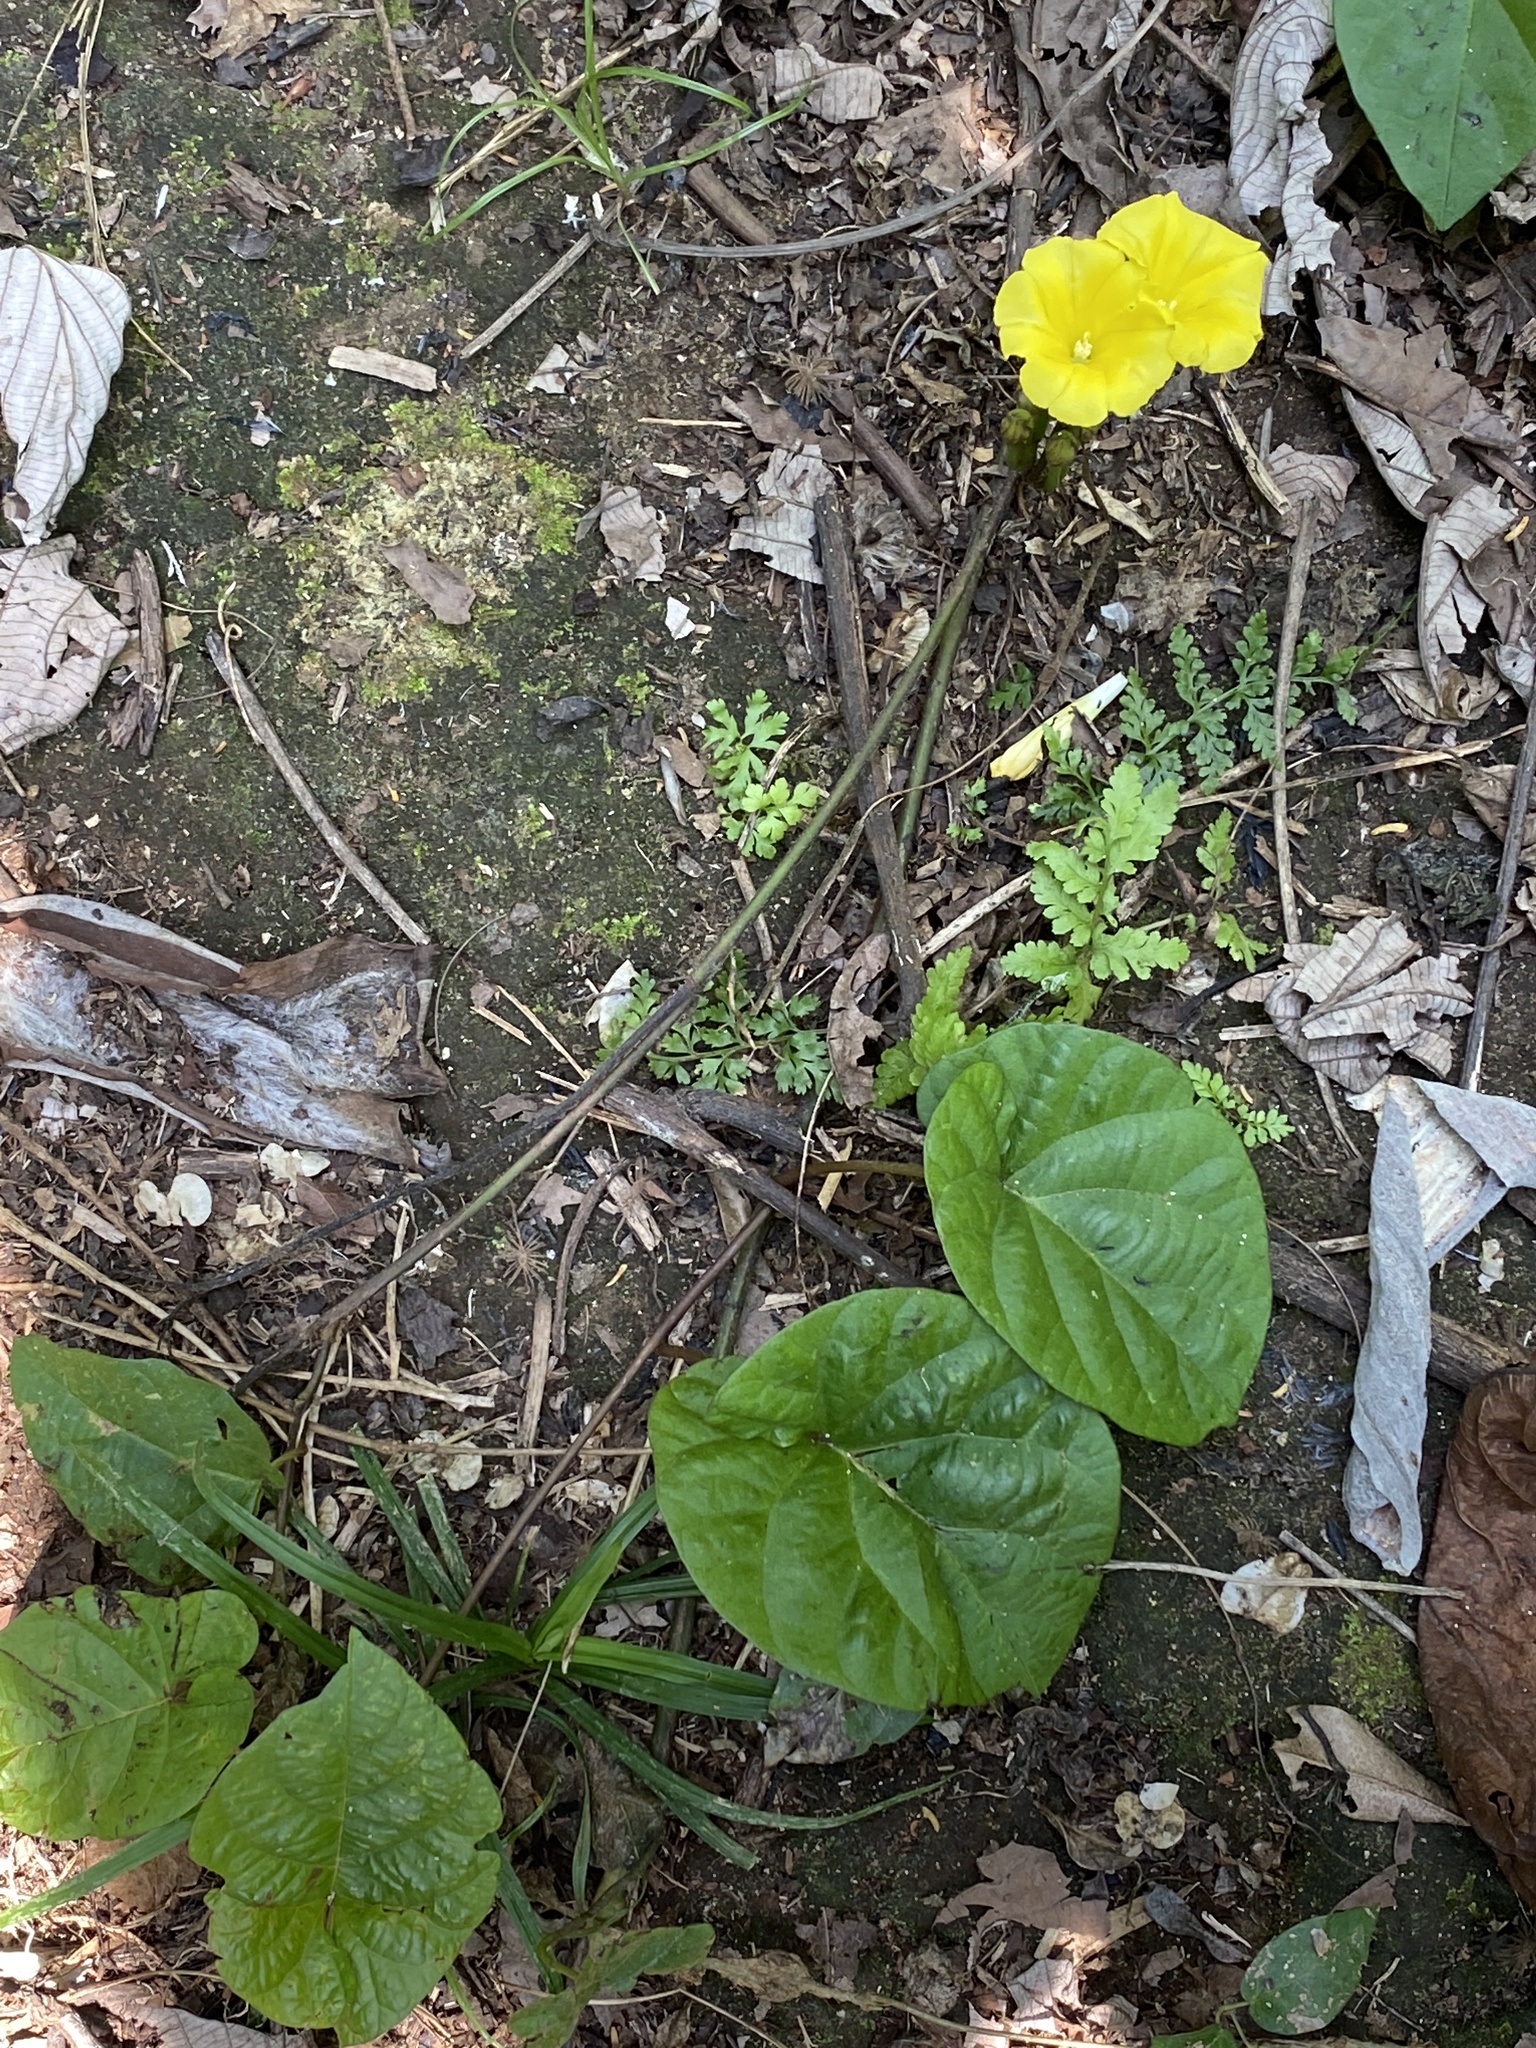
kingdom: Plantae
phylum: Tracheophyta
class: Magnoliopsida
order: Solanales
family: Convolvulaceae
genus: Camonea
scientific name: Camonea umbellata
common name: Hogvine
